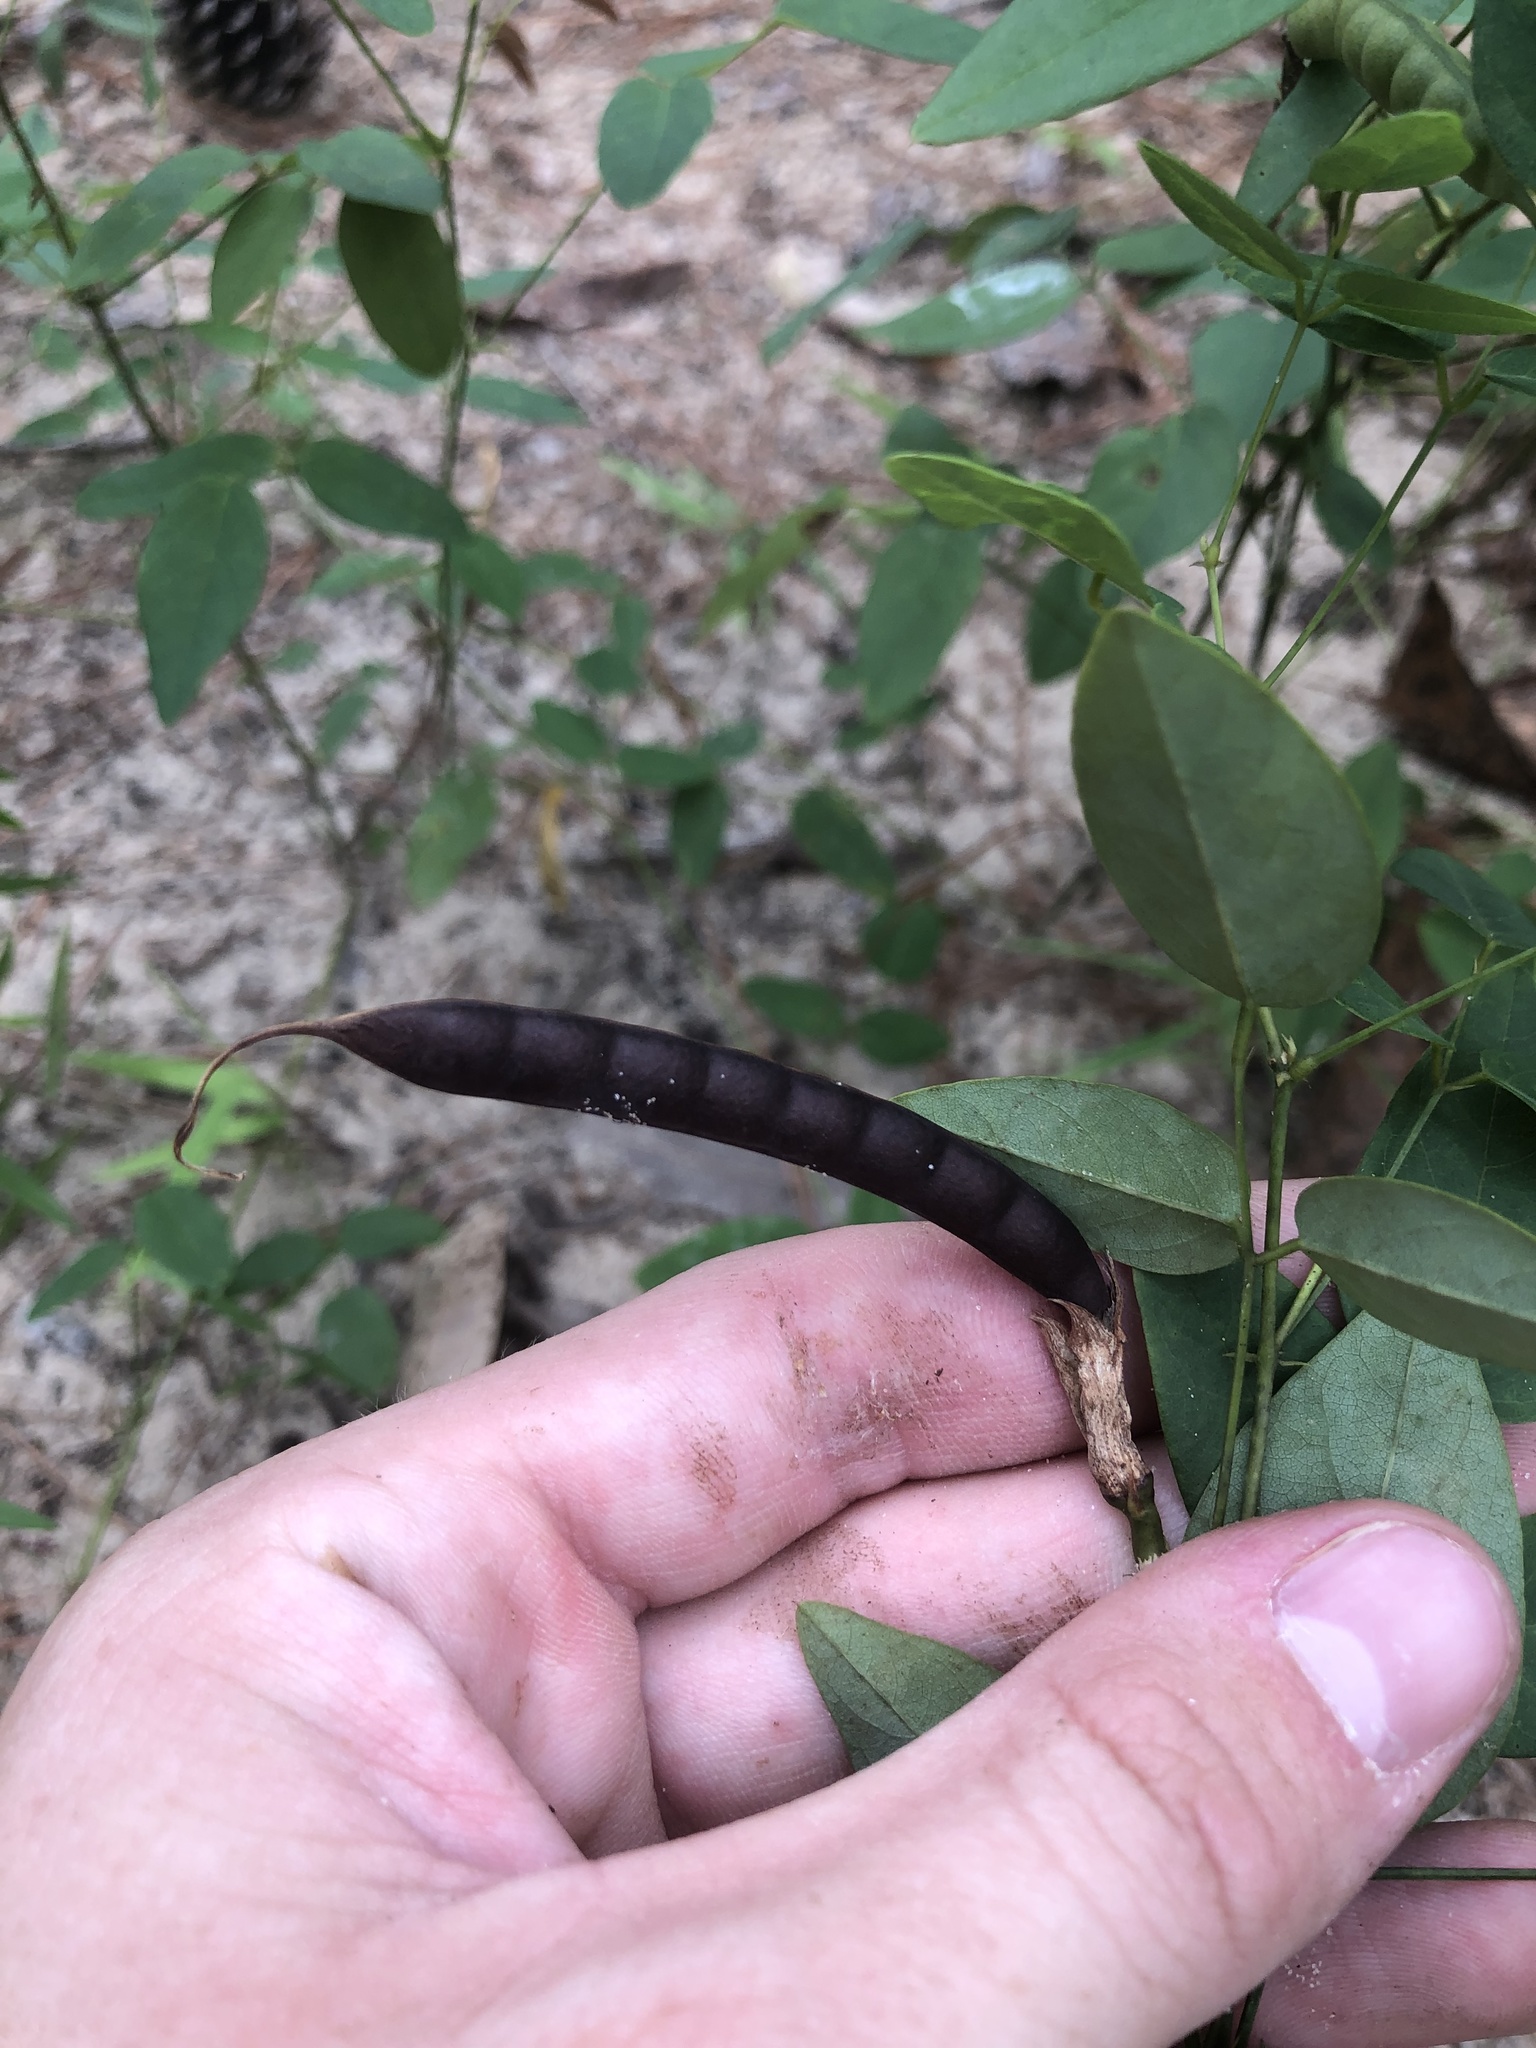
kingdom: Plantae
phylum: Tracheophyta
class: Magnoliopsida
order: Fabales
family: Fabaceae
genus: Clitoria
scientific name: Clitoria mariana
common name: Butterfly-pea
